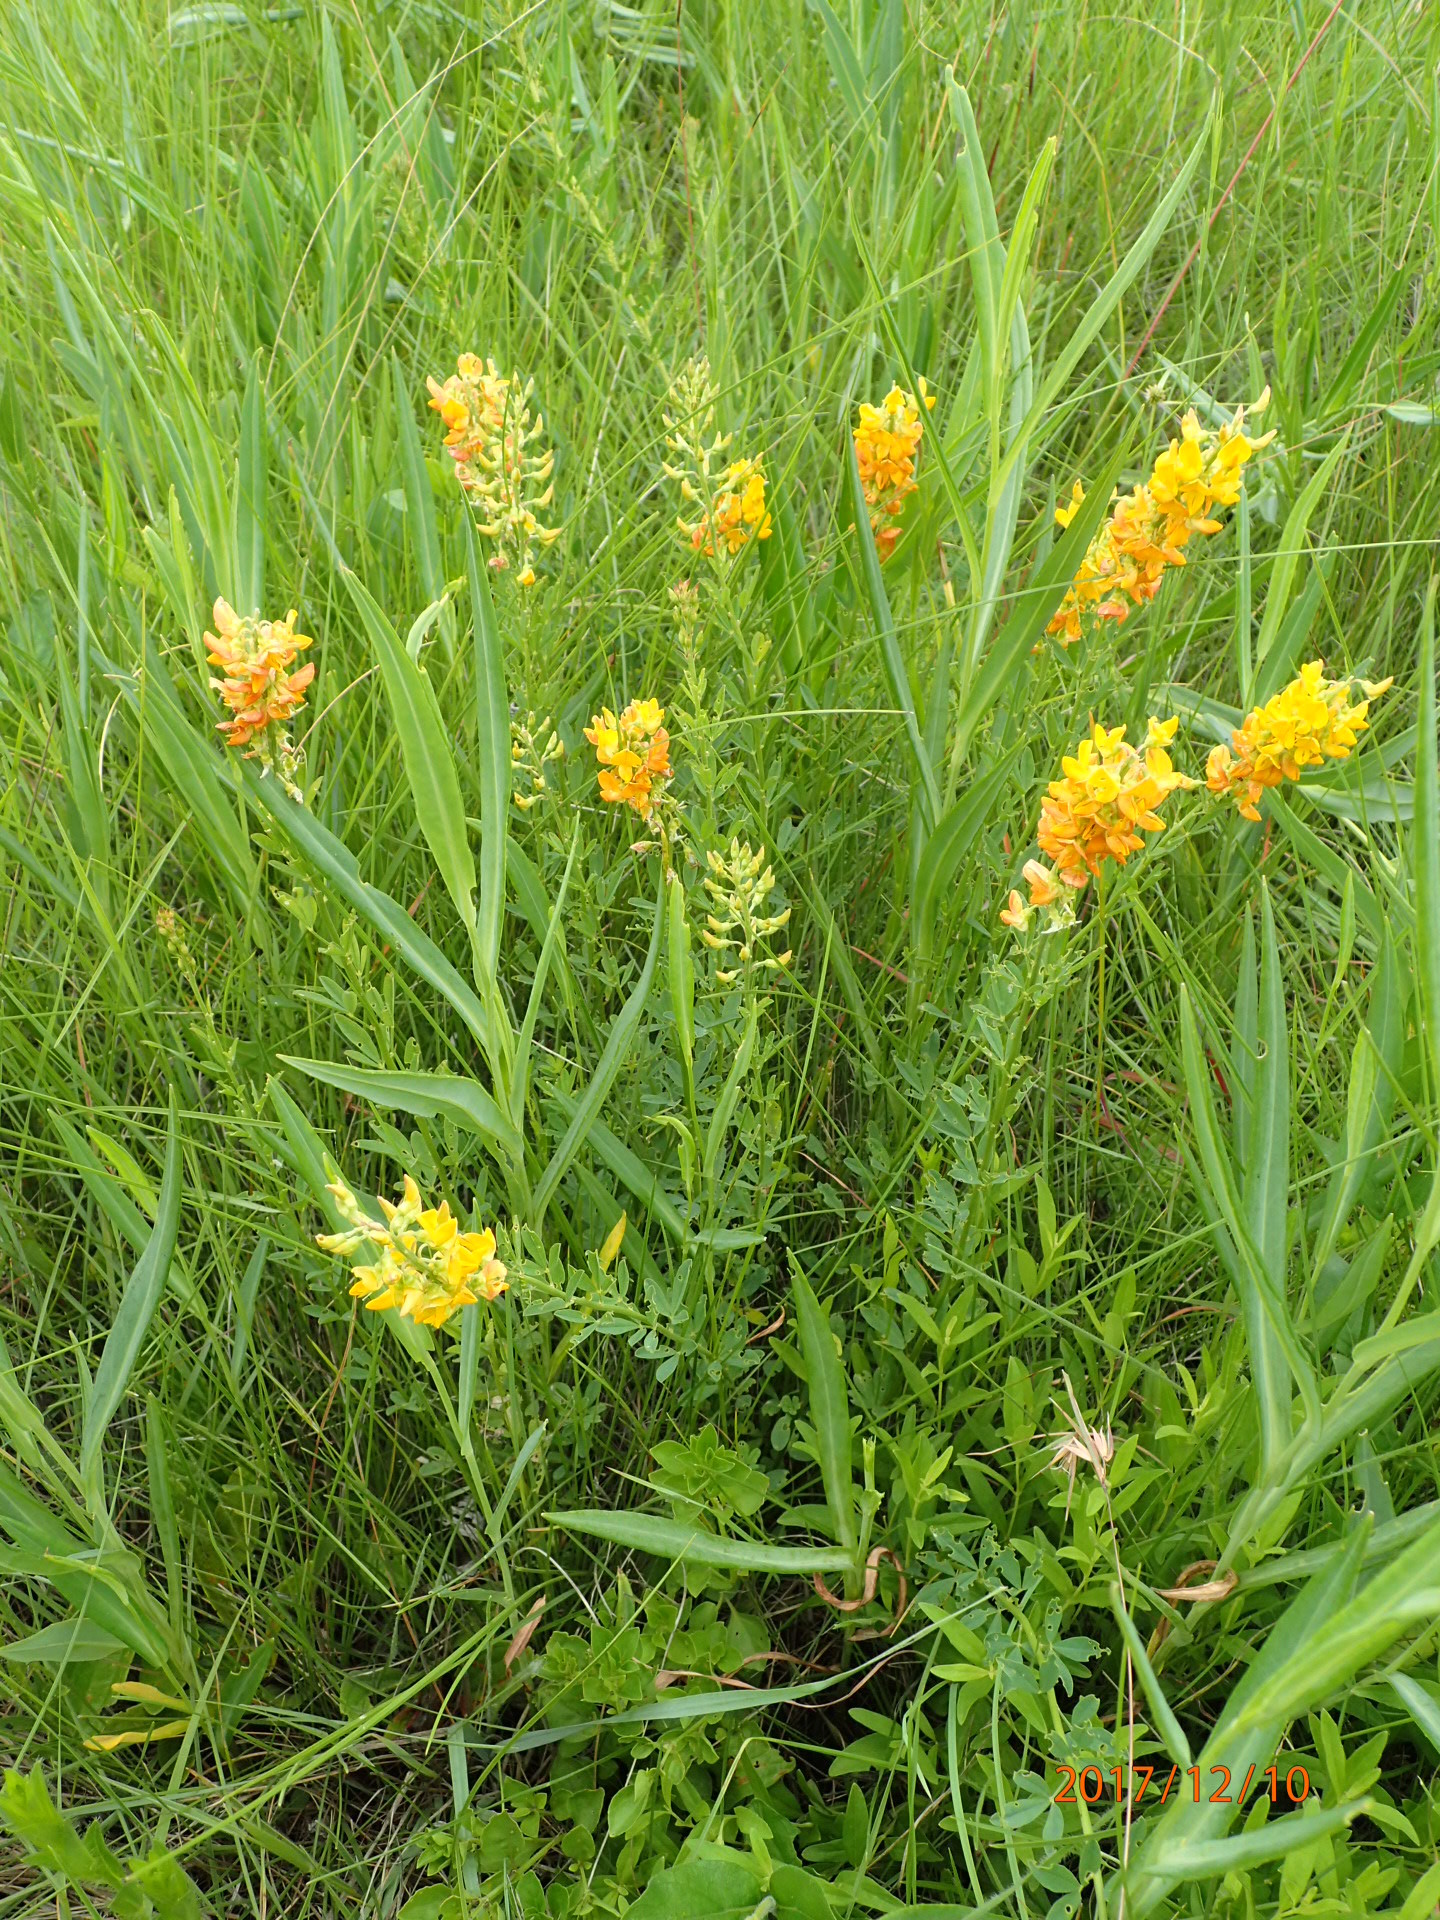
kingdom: Plantae
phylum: Tracheophyta
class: Magnoliopsida
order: Fabales
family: Fabaceae
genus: Crotalaria
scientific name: Crotalaria globifera
